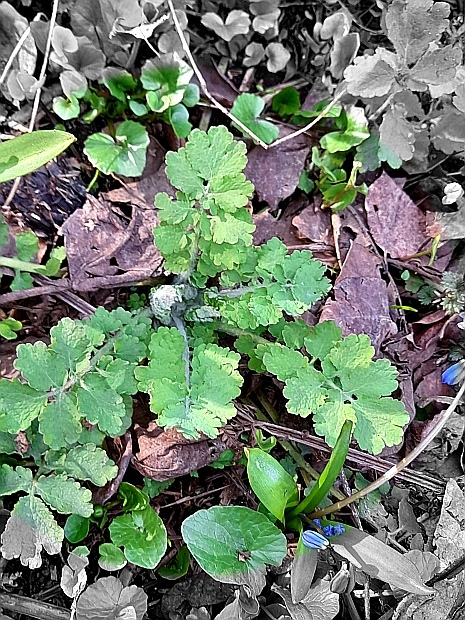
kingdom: Plantae
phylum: Tracheophyta
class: Magnoliopsida
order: Ranunculales
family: Papaveraceae
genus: Chelidonium
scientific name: Chelidonium majus
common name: Greater celandine
